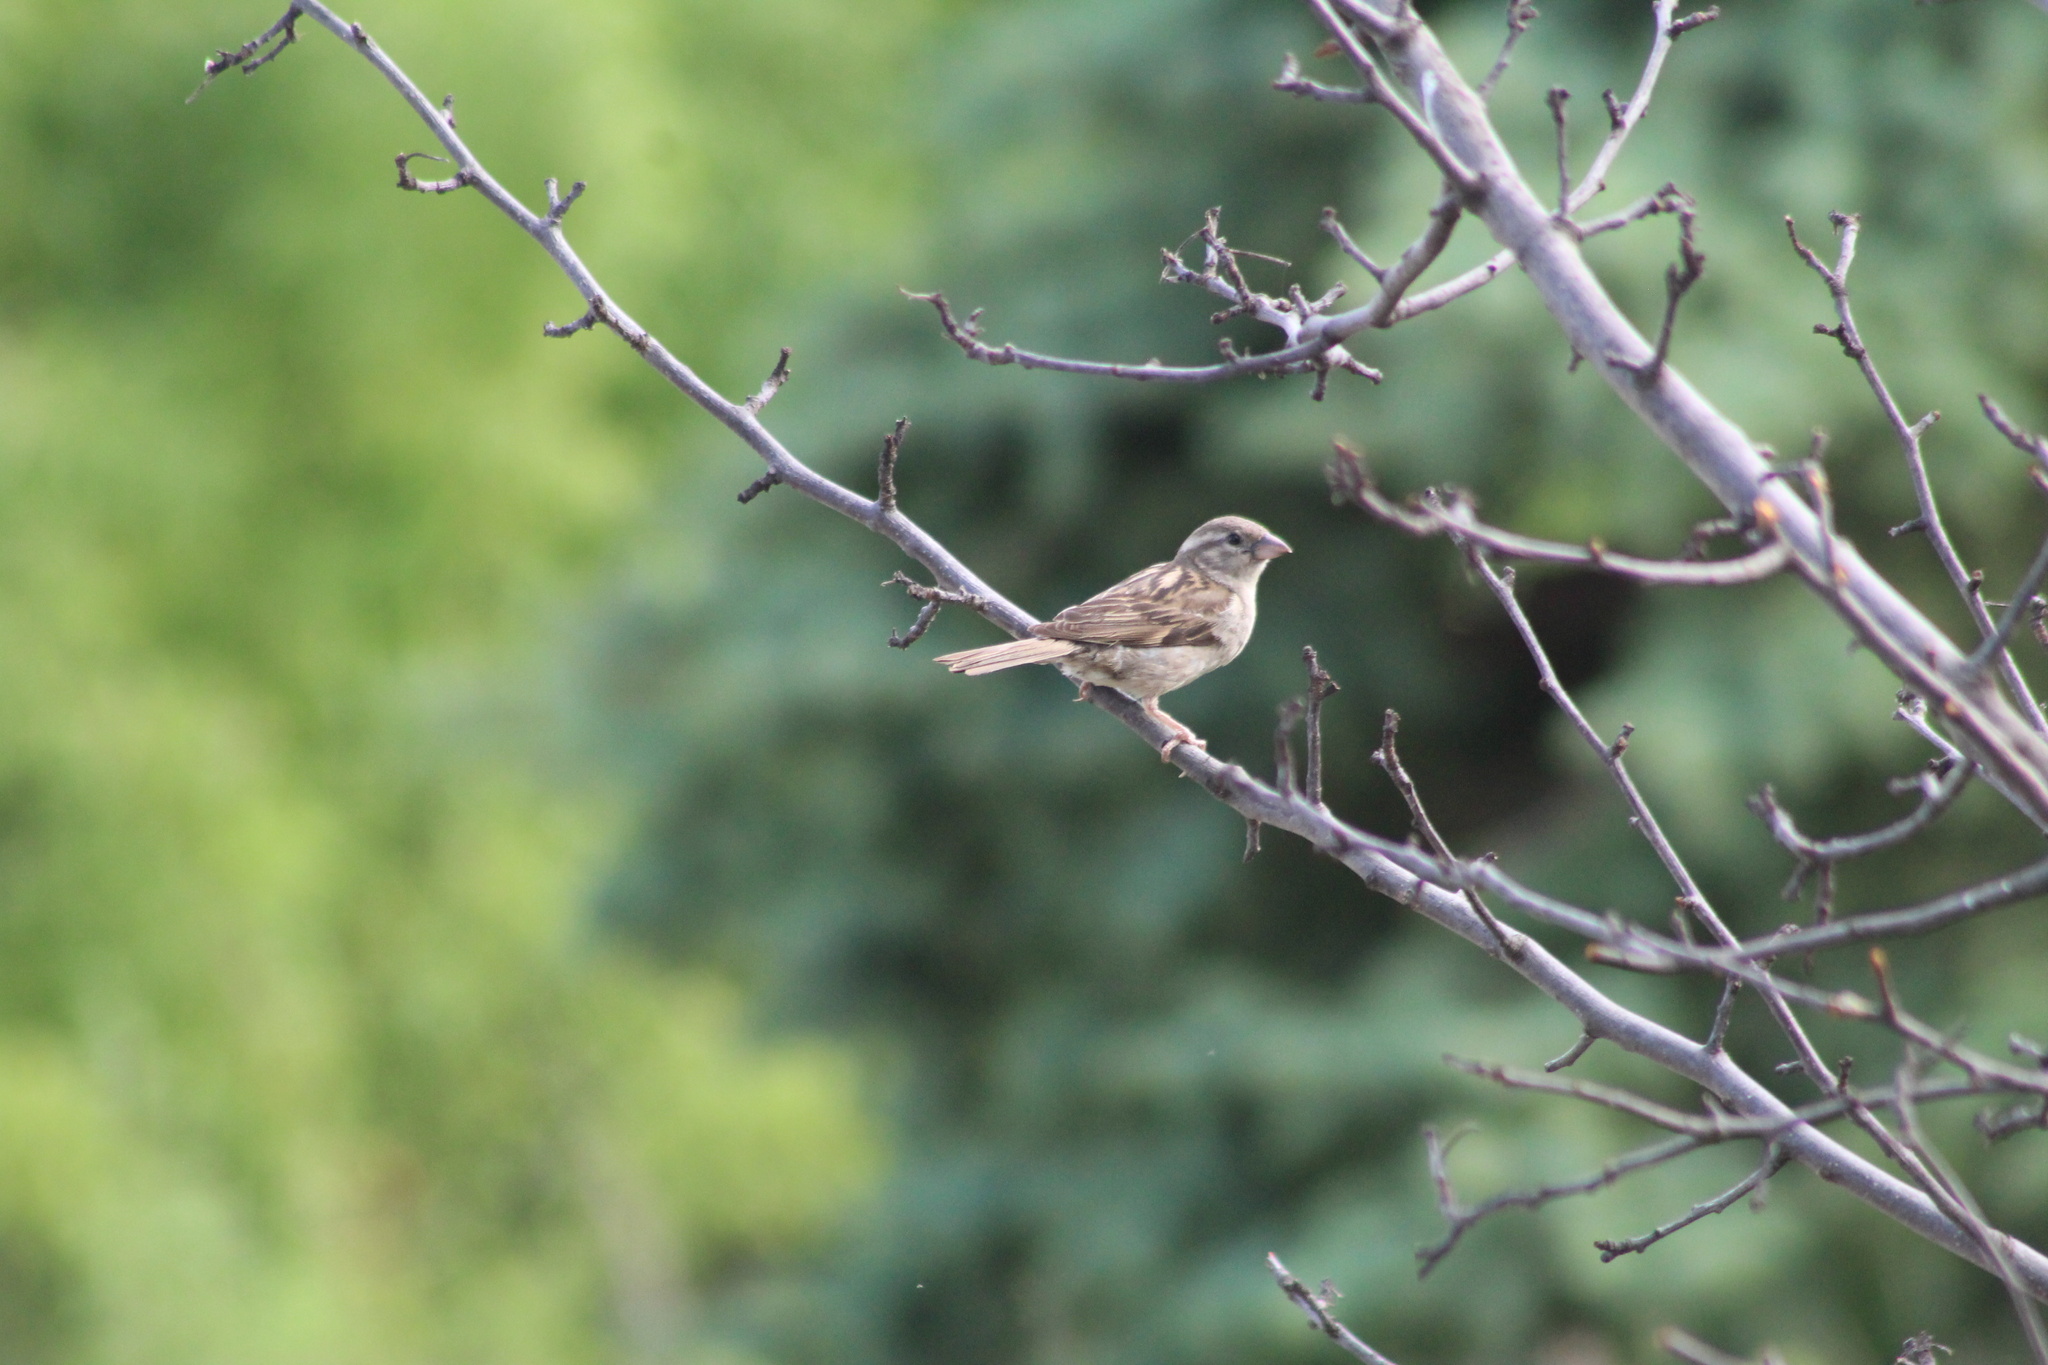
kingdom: Animalia
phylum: Chordata
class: Aves
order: Passeriformes
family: Passeridae
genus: Passer
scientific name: Passer domesticus
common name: House sparrow
